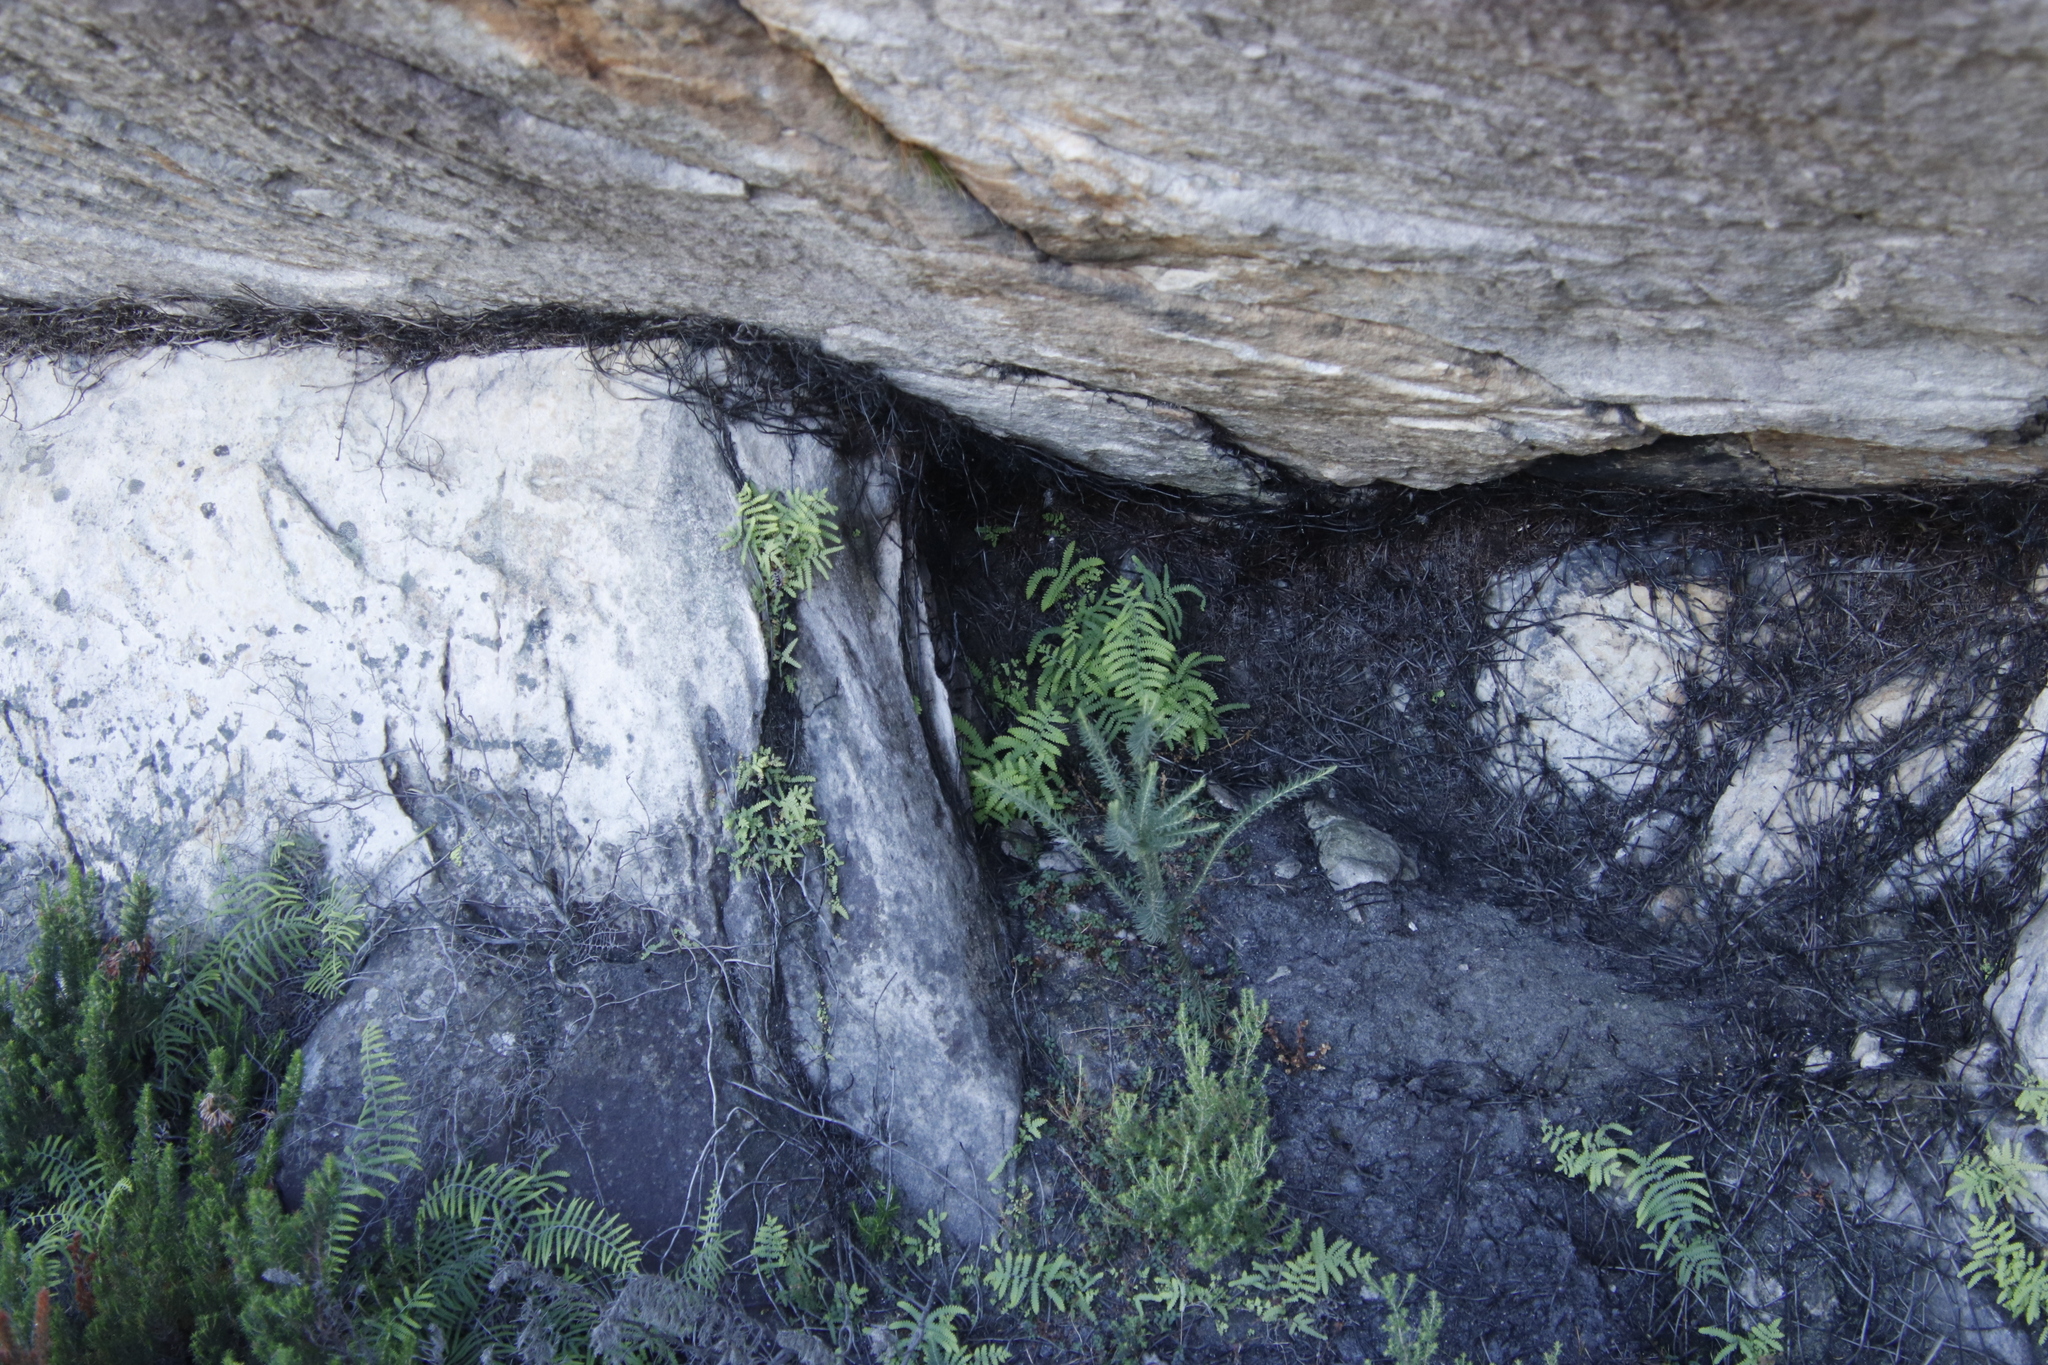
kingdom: Plantae
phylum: Tracheophyta
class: Polypodiopsida
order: Gleicheniales
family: Gleicheniaceae
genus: Gleichenia
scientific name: Gleichenia polypodioides
